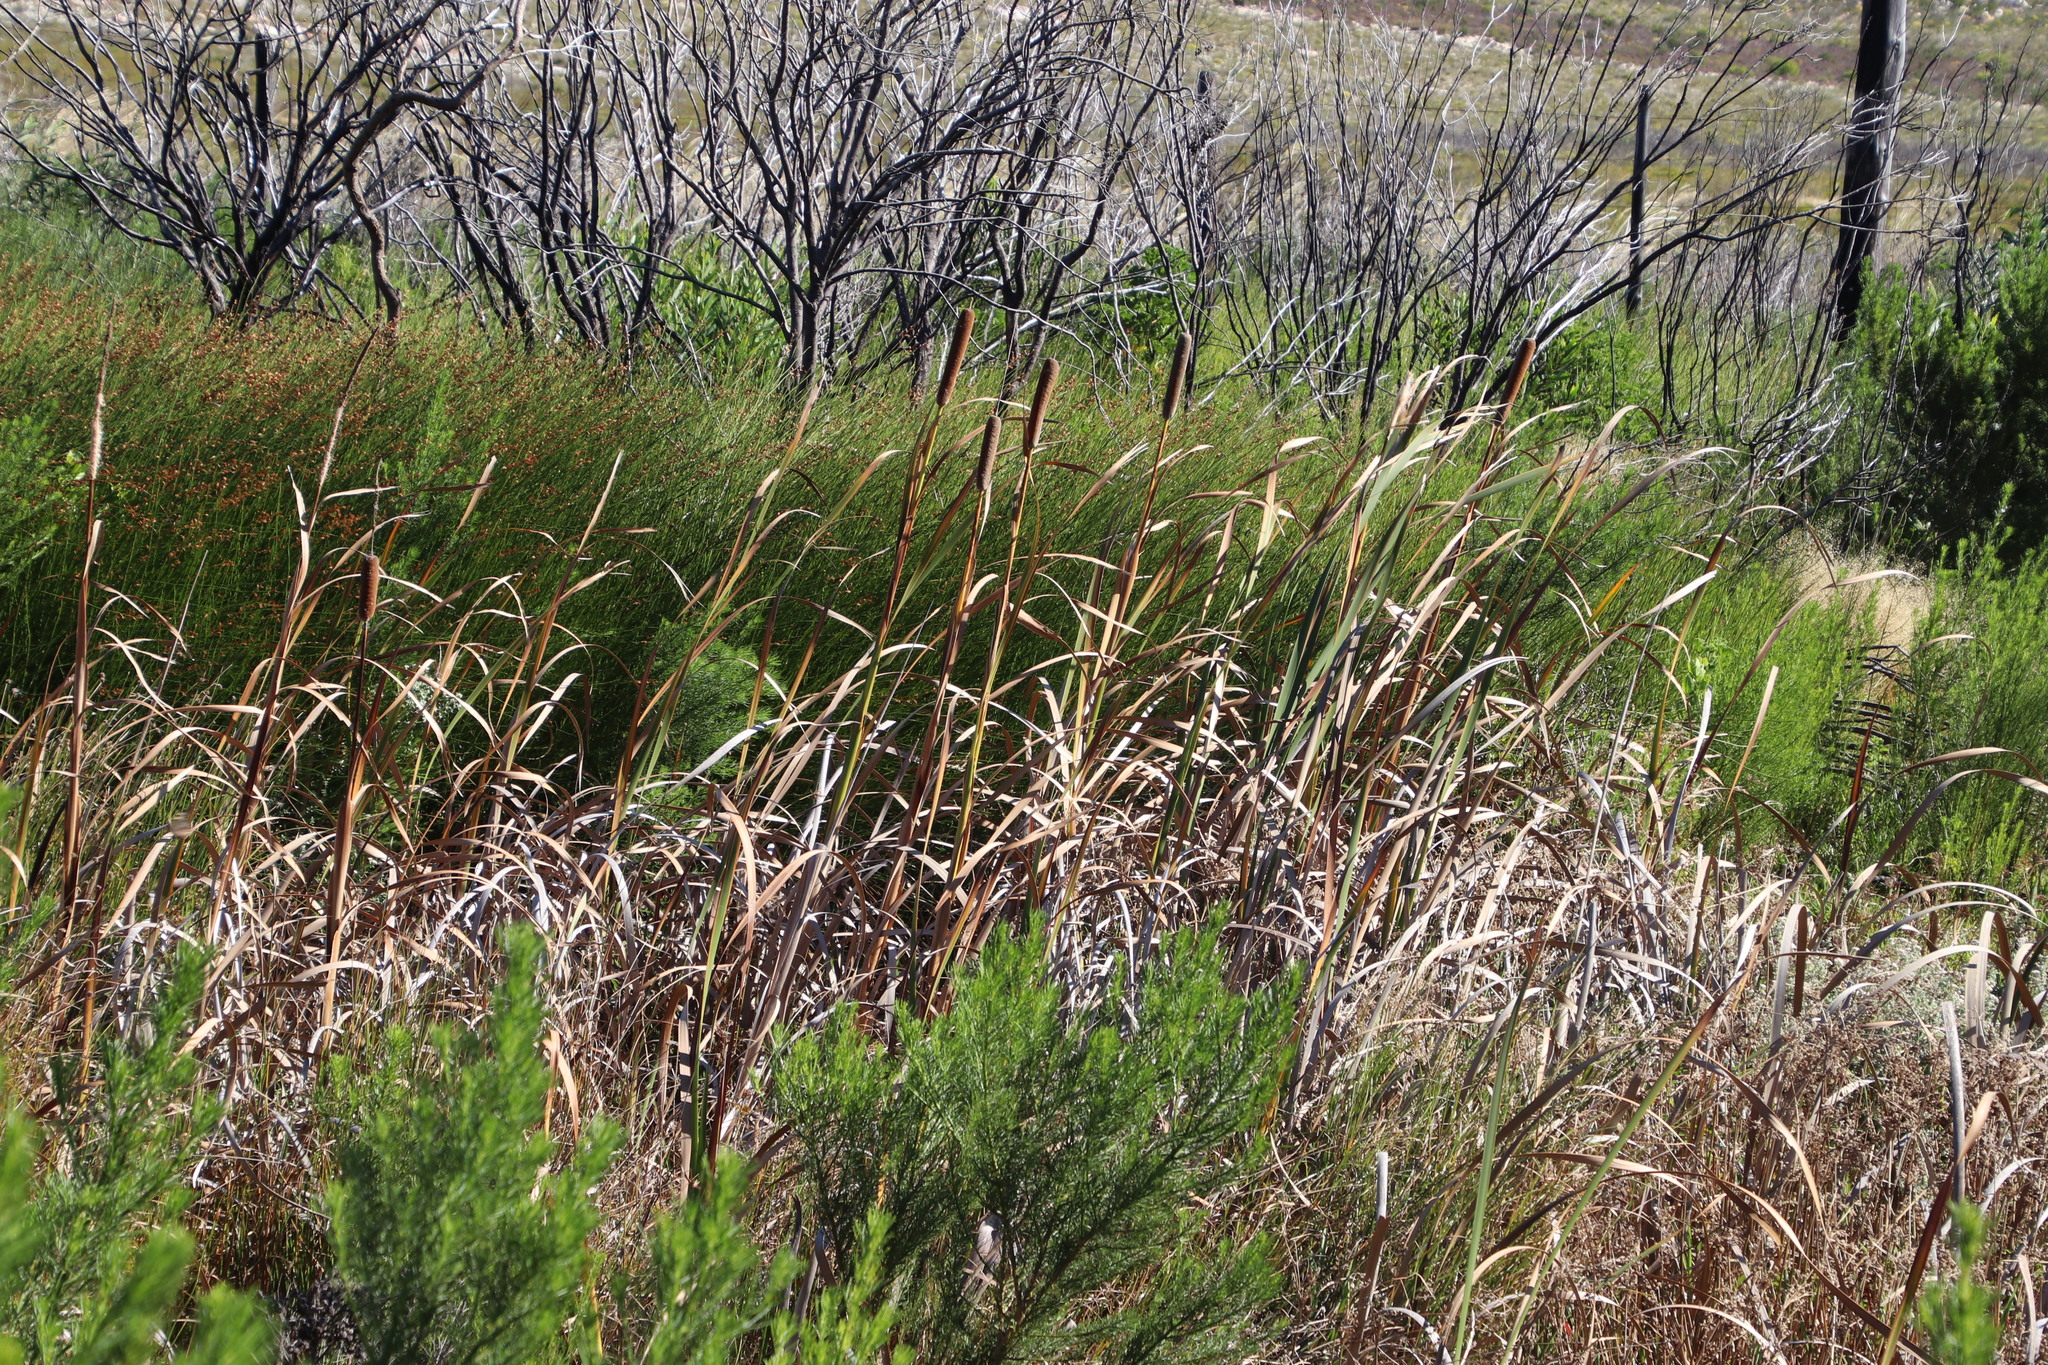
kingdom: Plantae
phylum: Tracheophyta
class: Liliopsida
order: Poales
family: Typhaceae
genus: Typha
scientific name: Typha capensis
